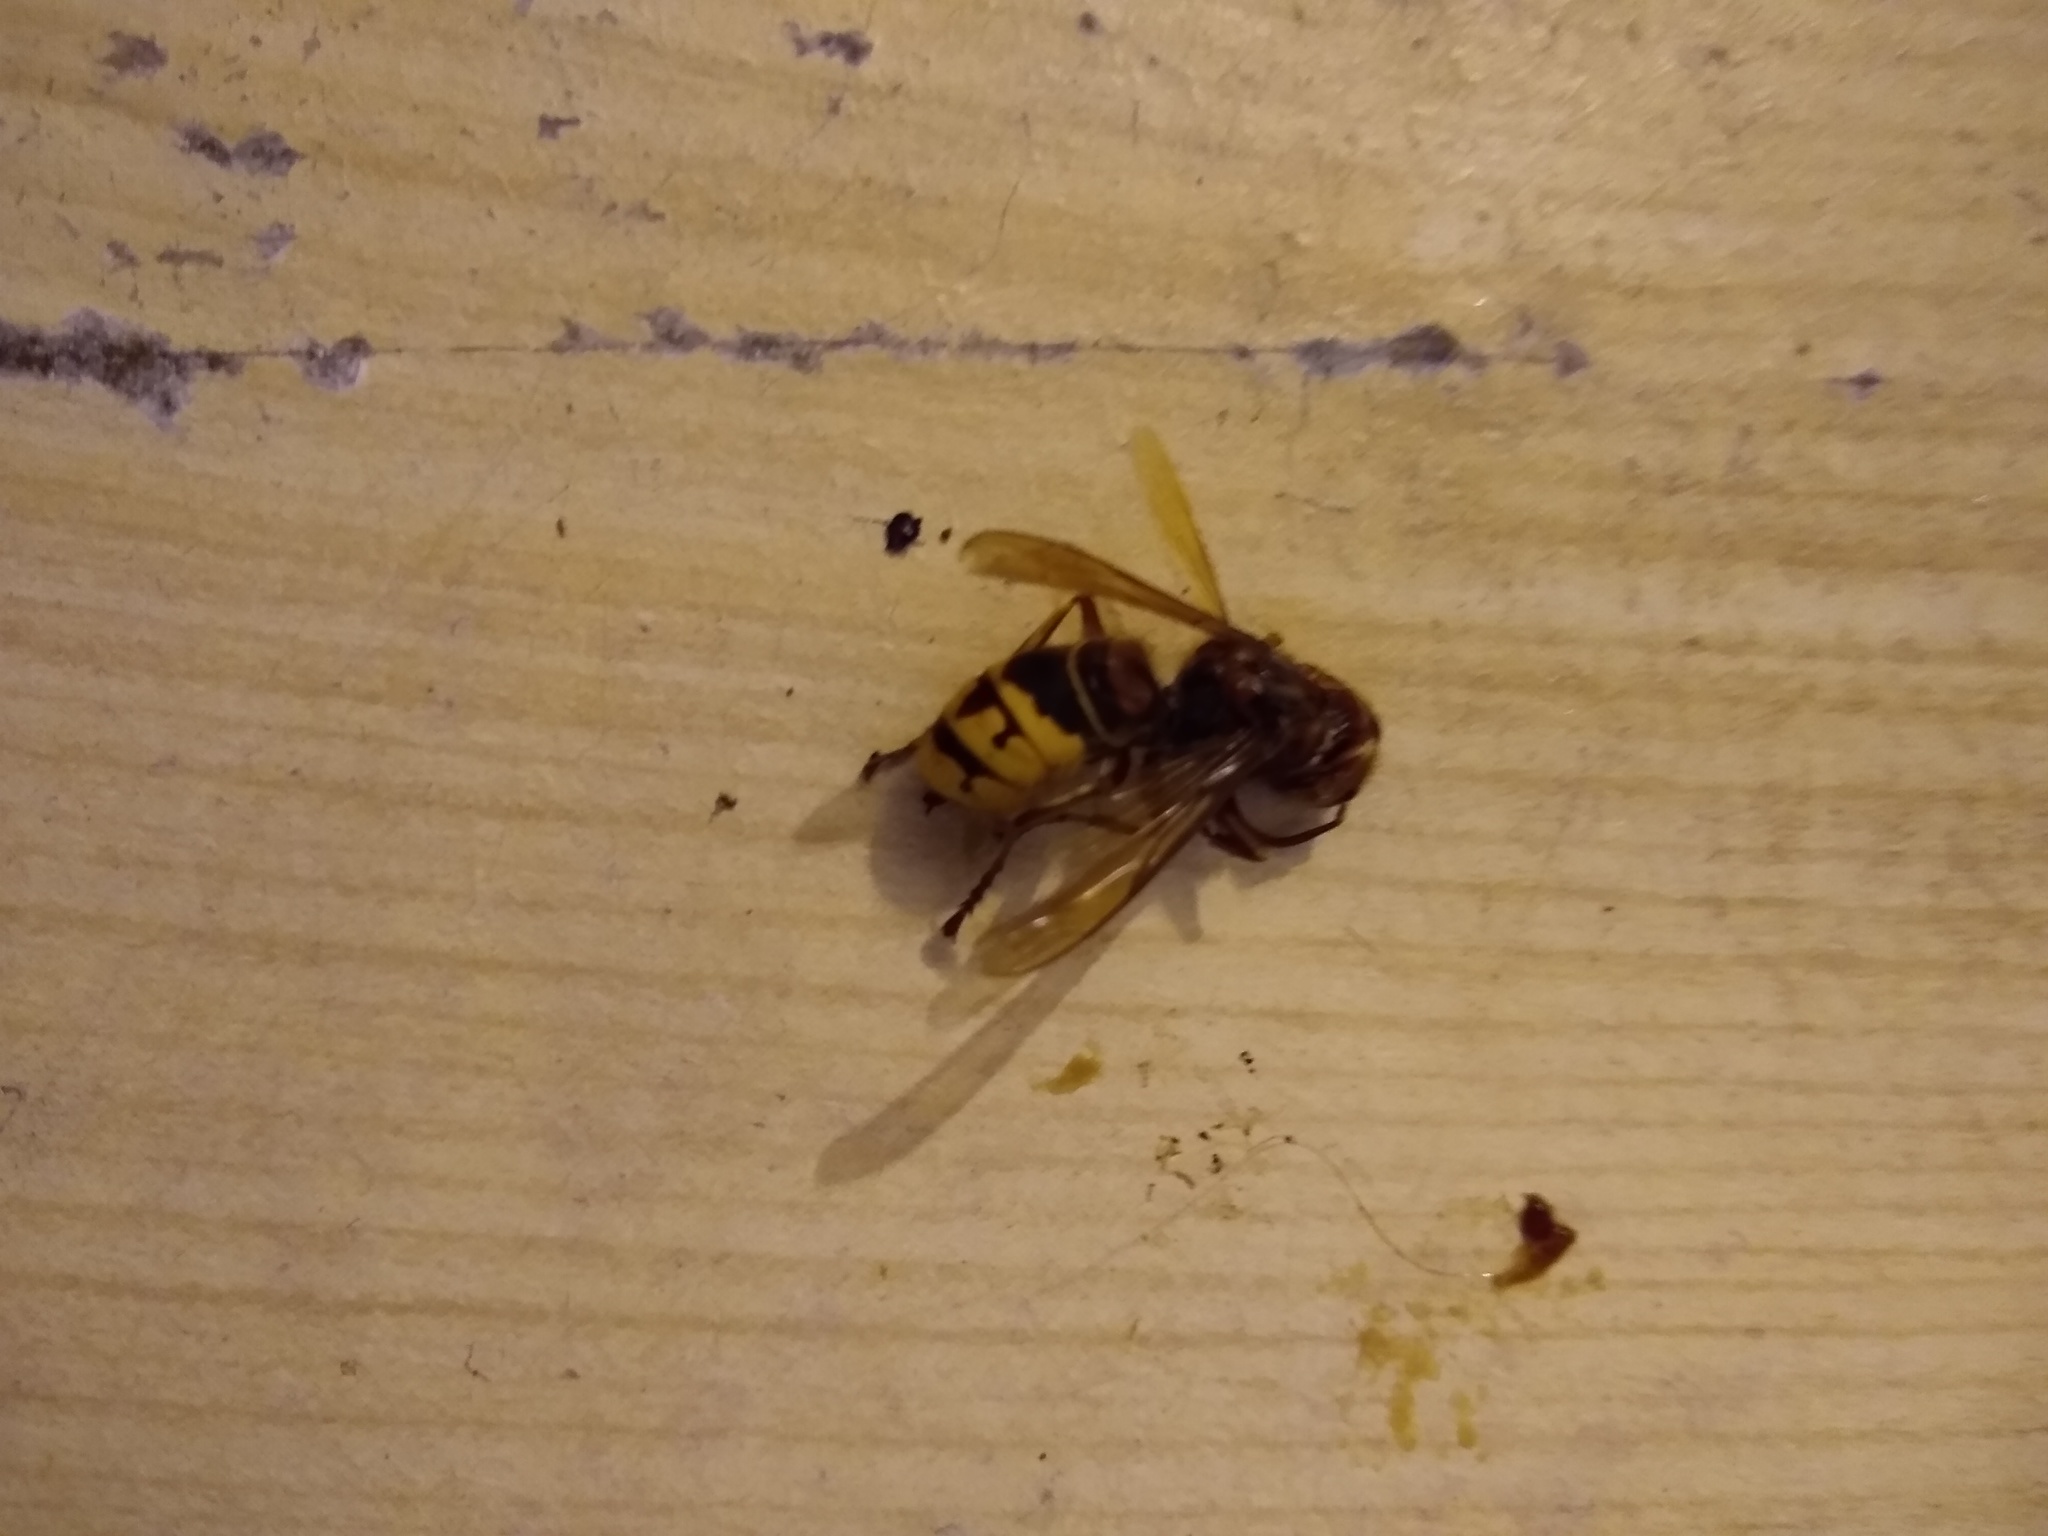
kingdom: Animalia
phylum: Arthropoda
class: Insecta
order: Hymenoptera
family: Vespidae
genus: Vespa
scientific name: Vespa crabro
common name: Hornet
